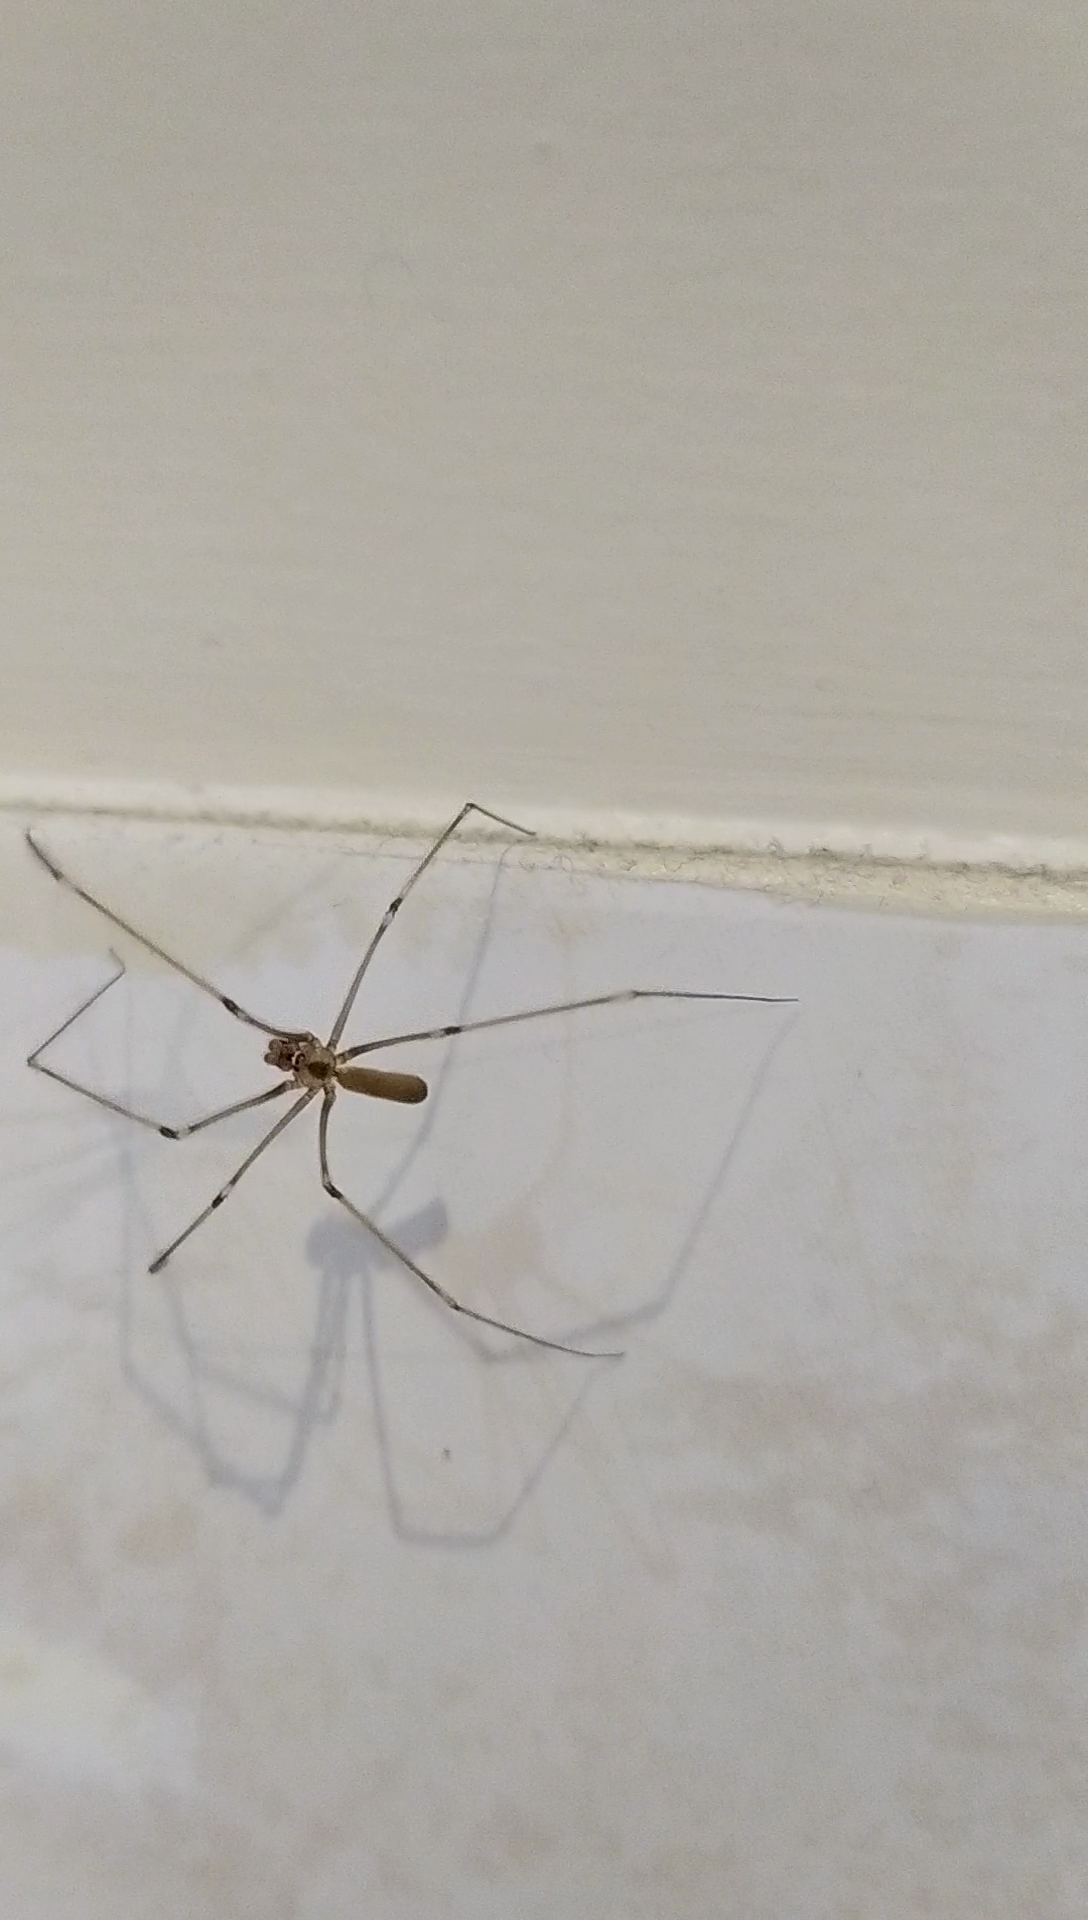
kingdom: Animalia
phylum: Arthropoda
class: Arachnida
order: Araneae
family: Pholcidae
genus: Pholcus
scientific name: Pholcus phalangioides
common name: Longbodied cellar spider
